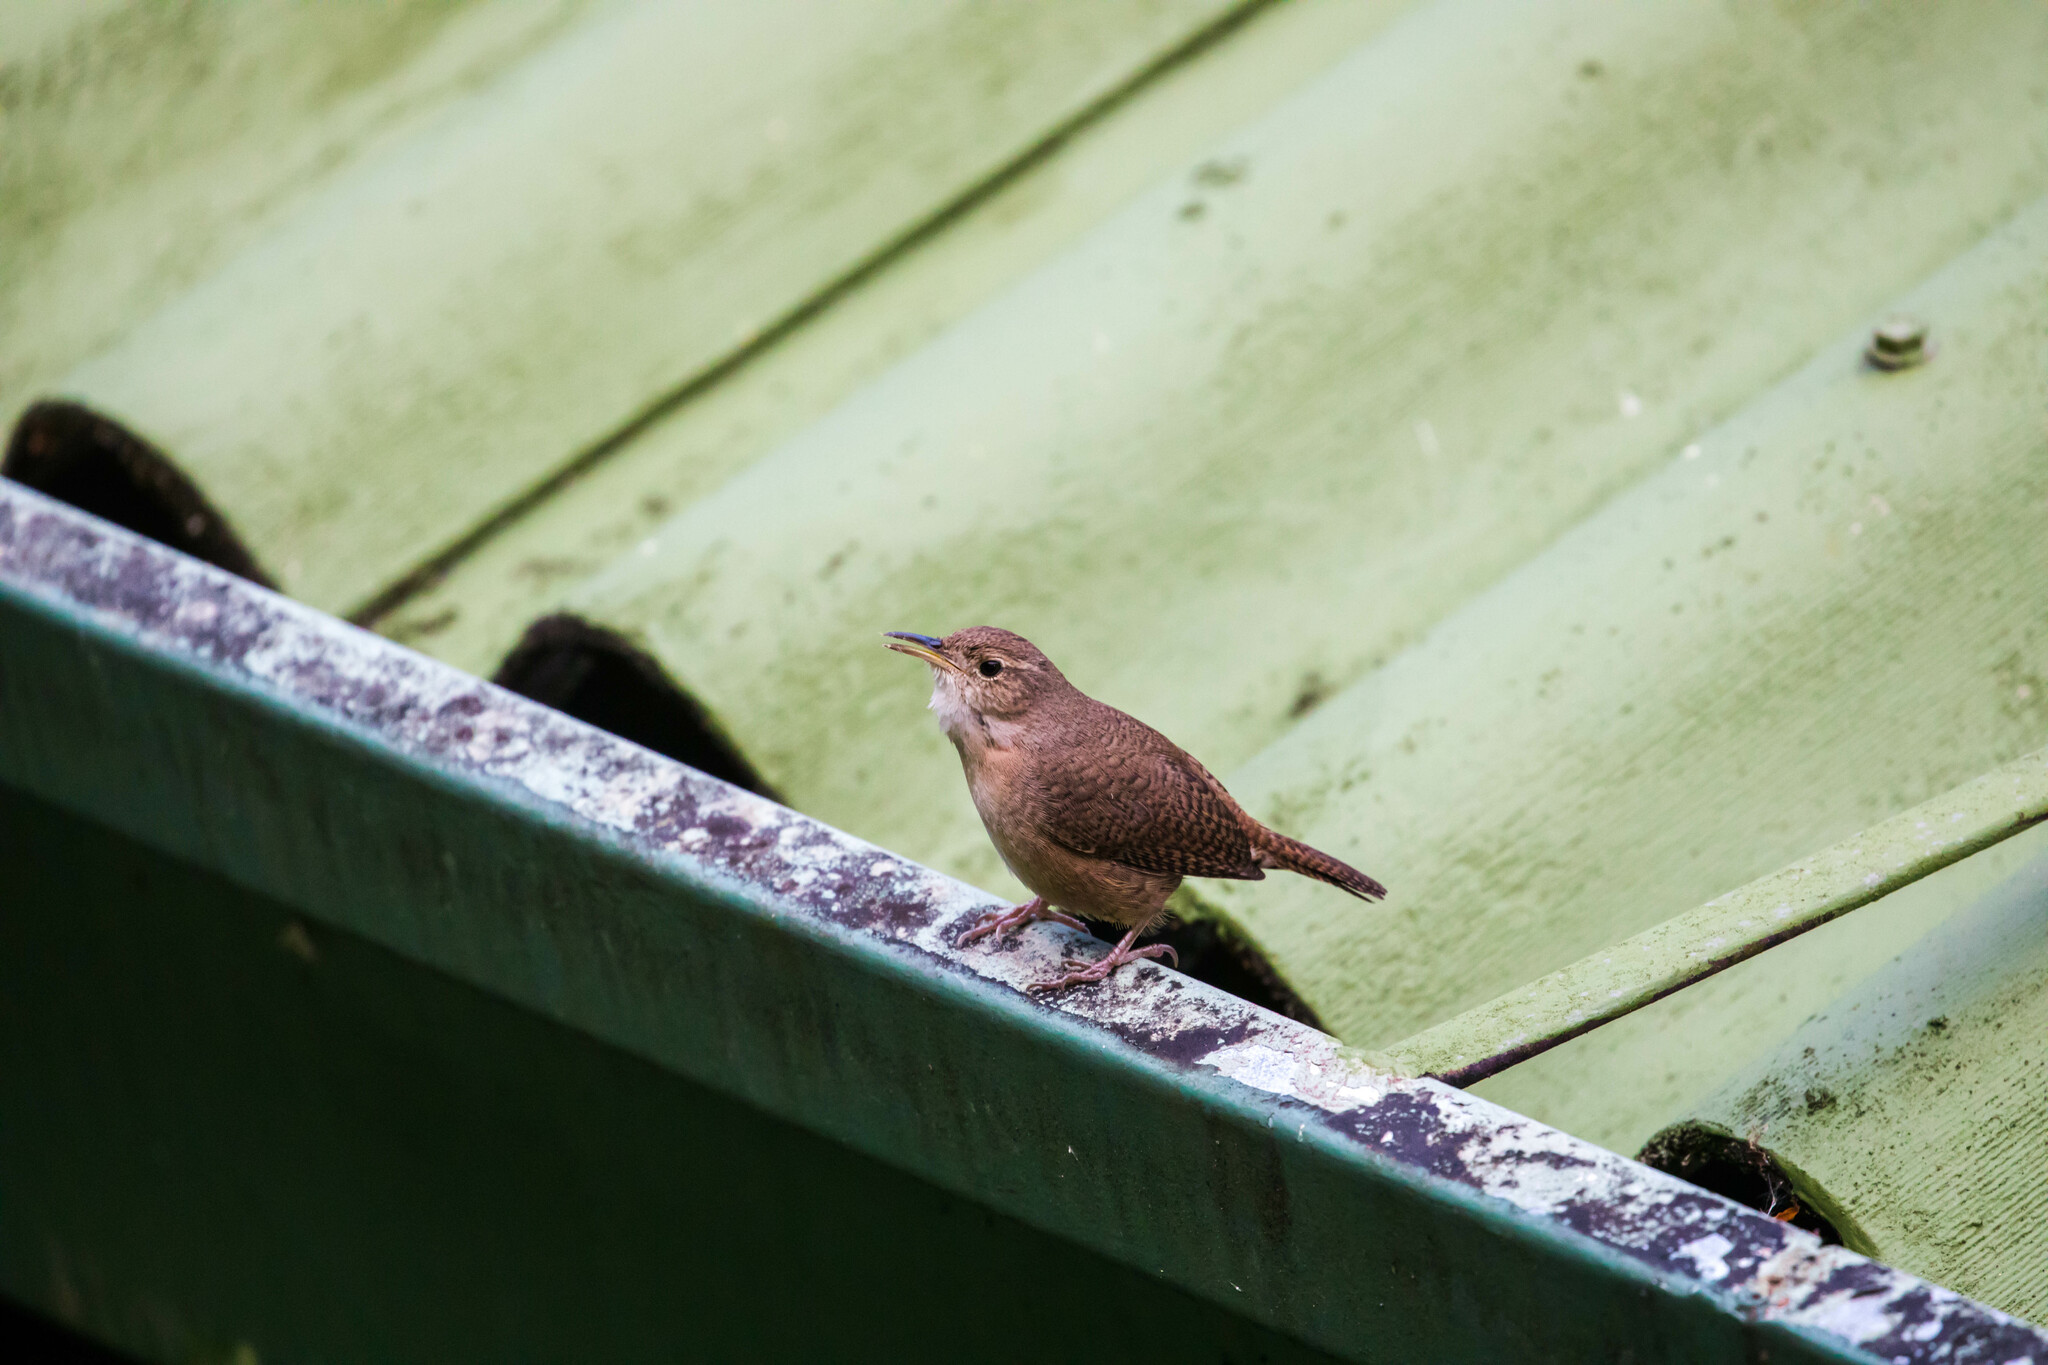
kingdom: Animalia
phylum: Chordata
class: Aves
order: Passeriformes
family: Troglodytidae
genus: Troglodytes
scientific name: Troglodytes aedon
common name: House wren
